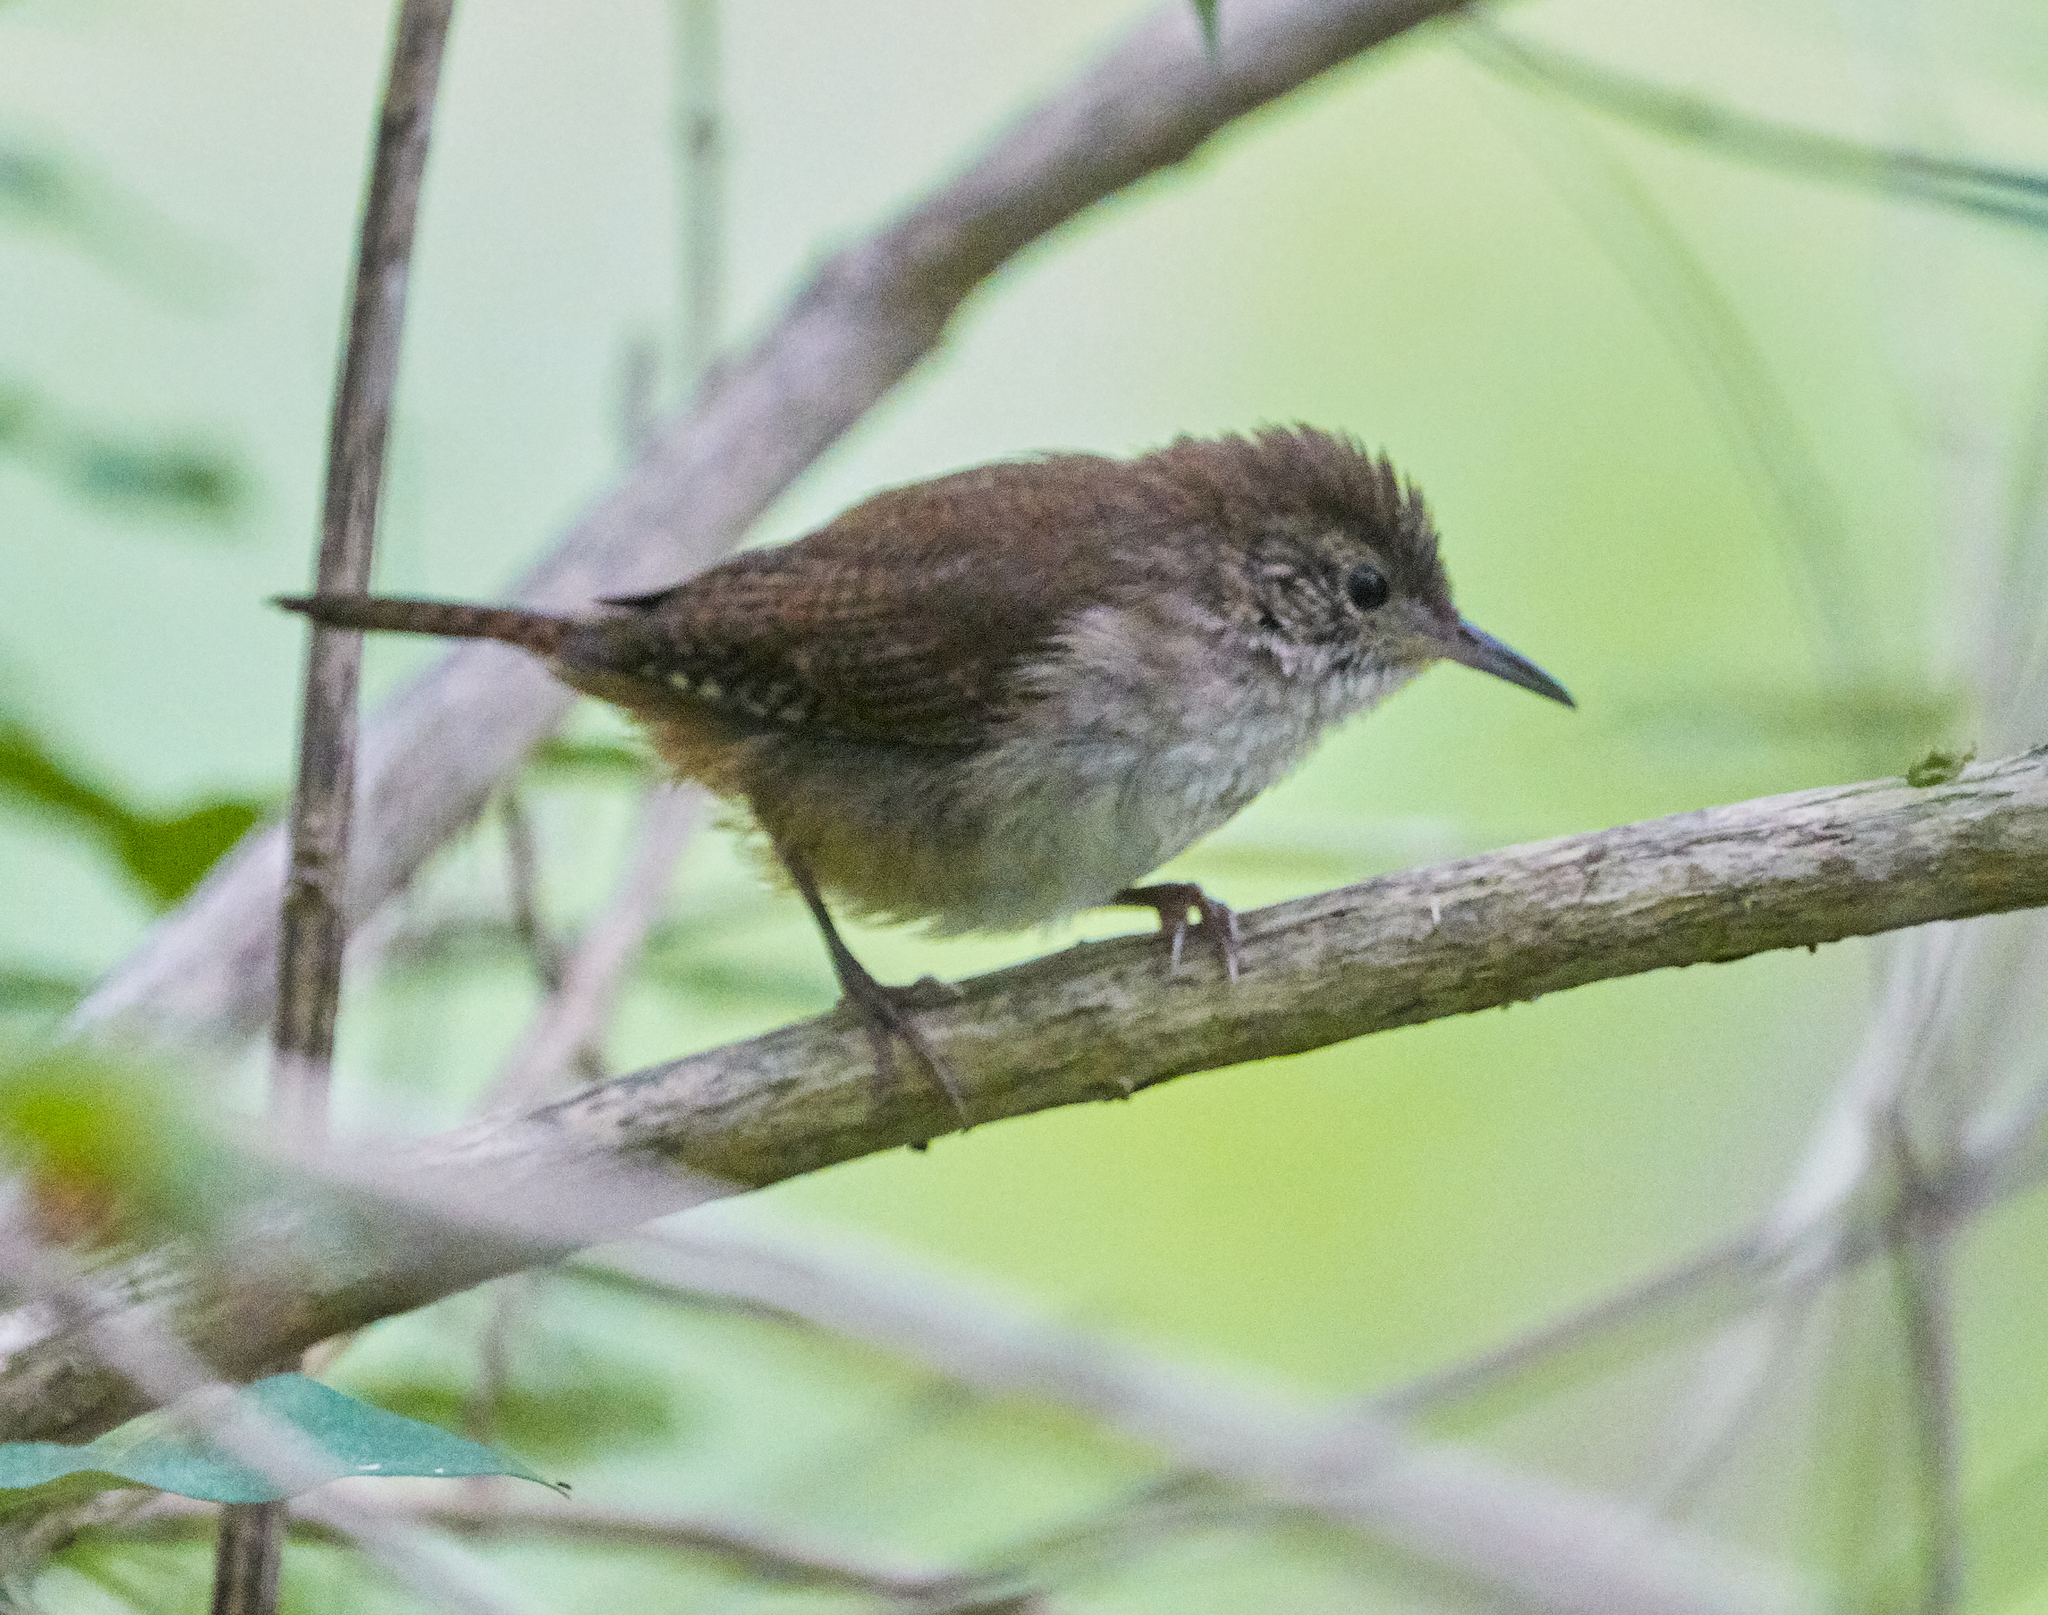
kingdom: Animalia
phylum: Chordata
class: Aves
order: Passeriformes
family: Troglodytidae
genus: Troglodytes
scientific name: Troglodytes aedon
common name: House wren
